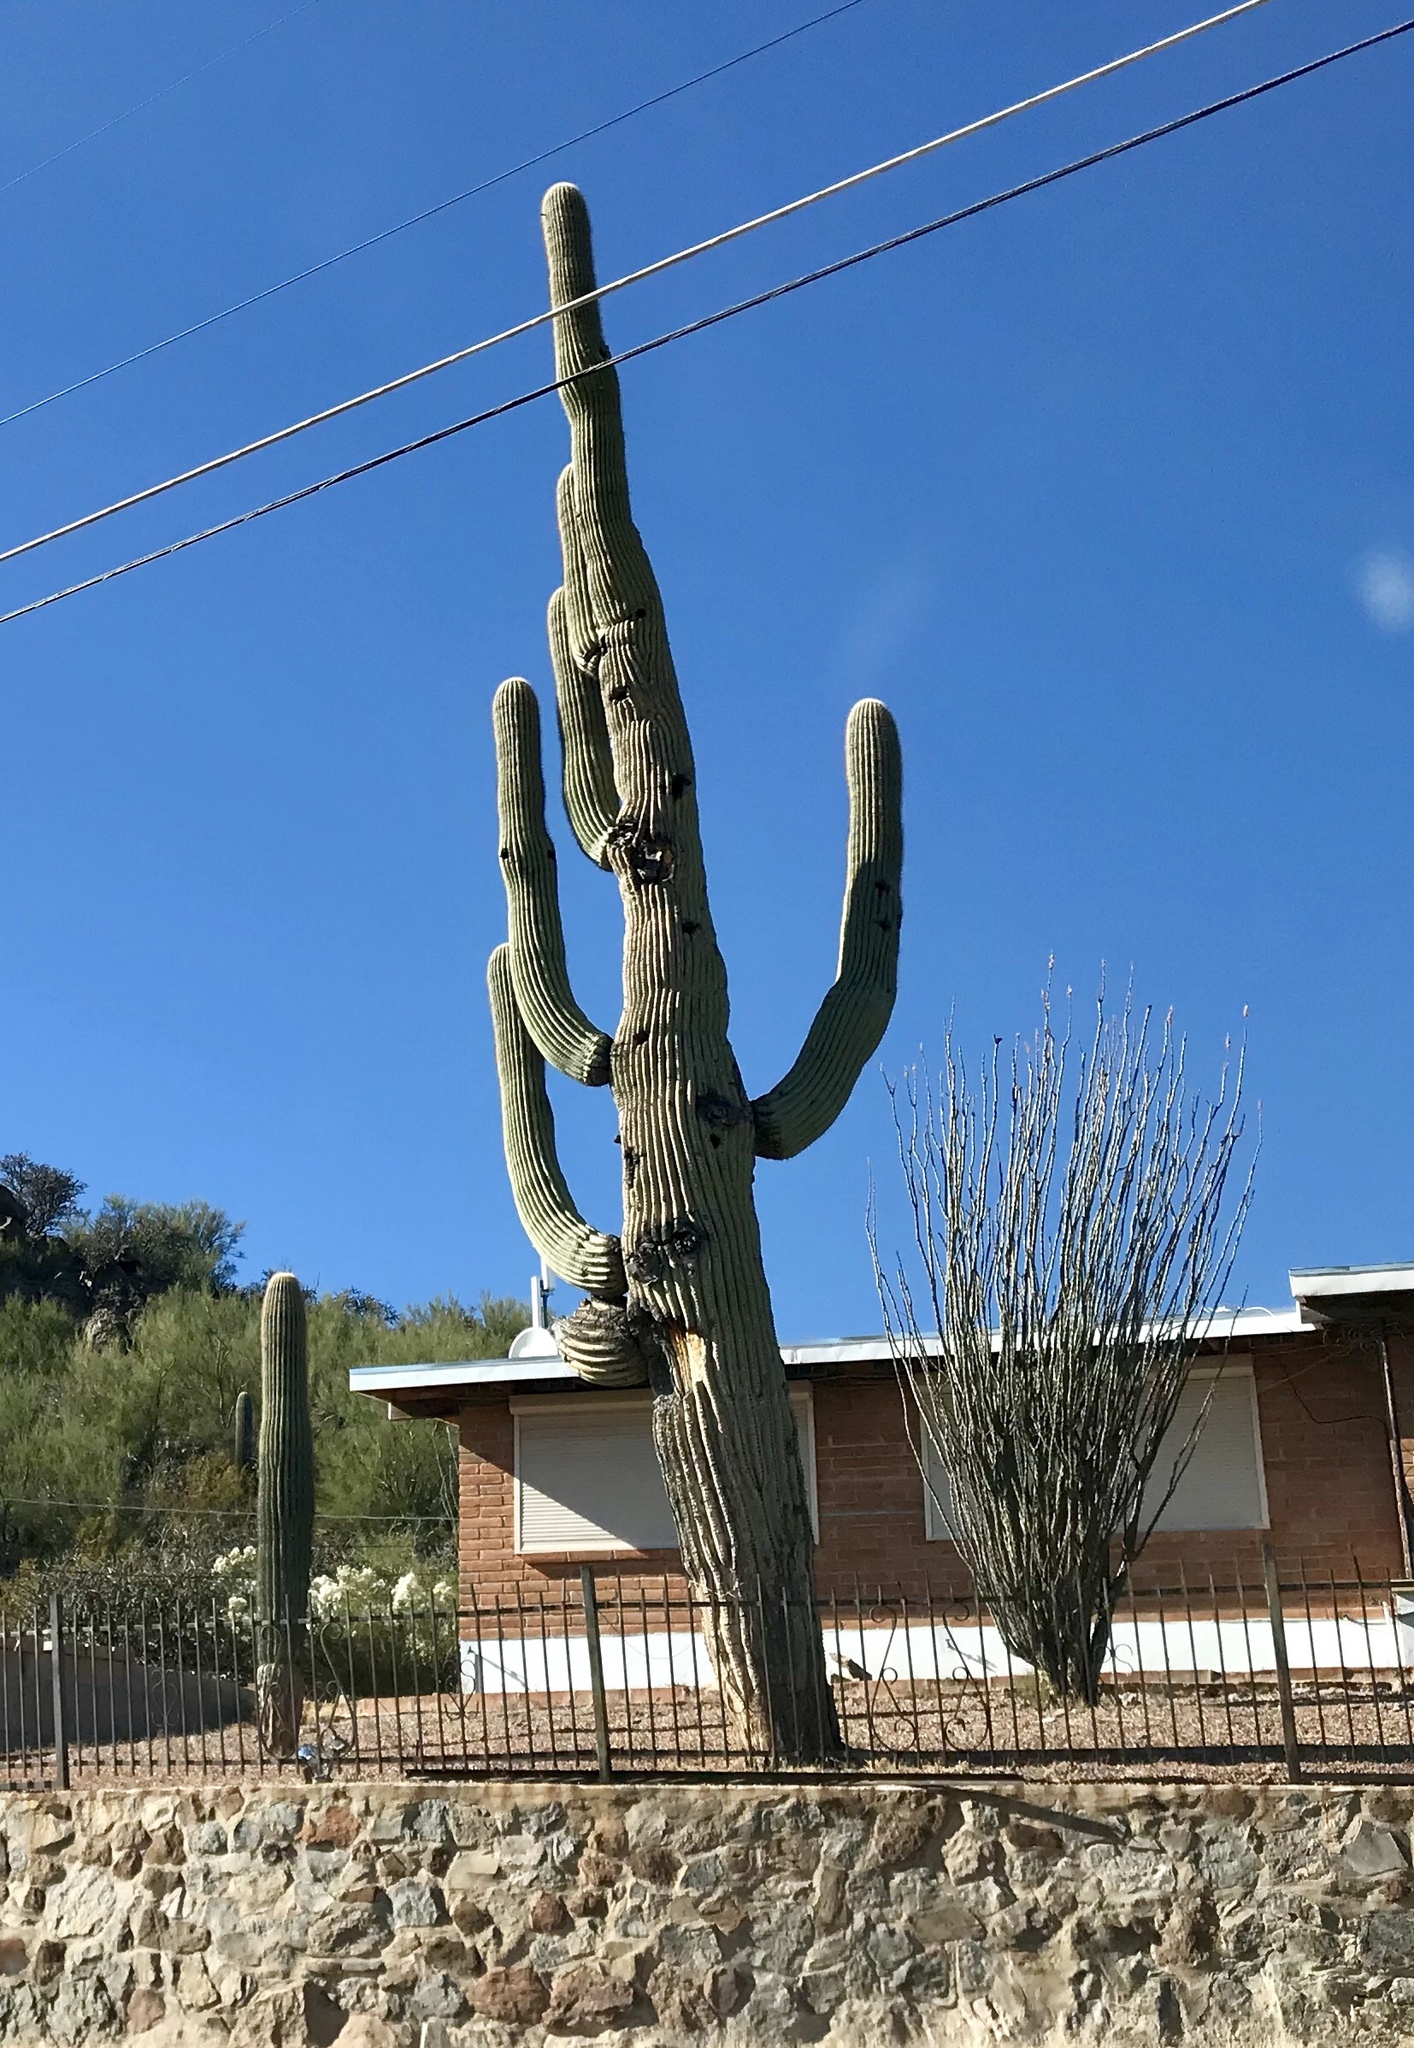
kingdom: Plantae
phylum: Tracheophyta
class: Magnoliopsida
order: Caryophyllales
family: Cactaceae
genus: Carnegiea
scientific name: Carnegiea gigantea
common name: Saguaro
